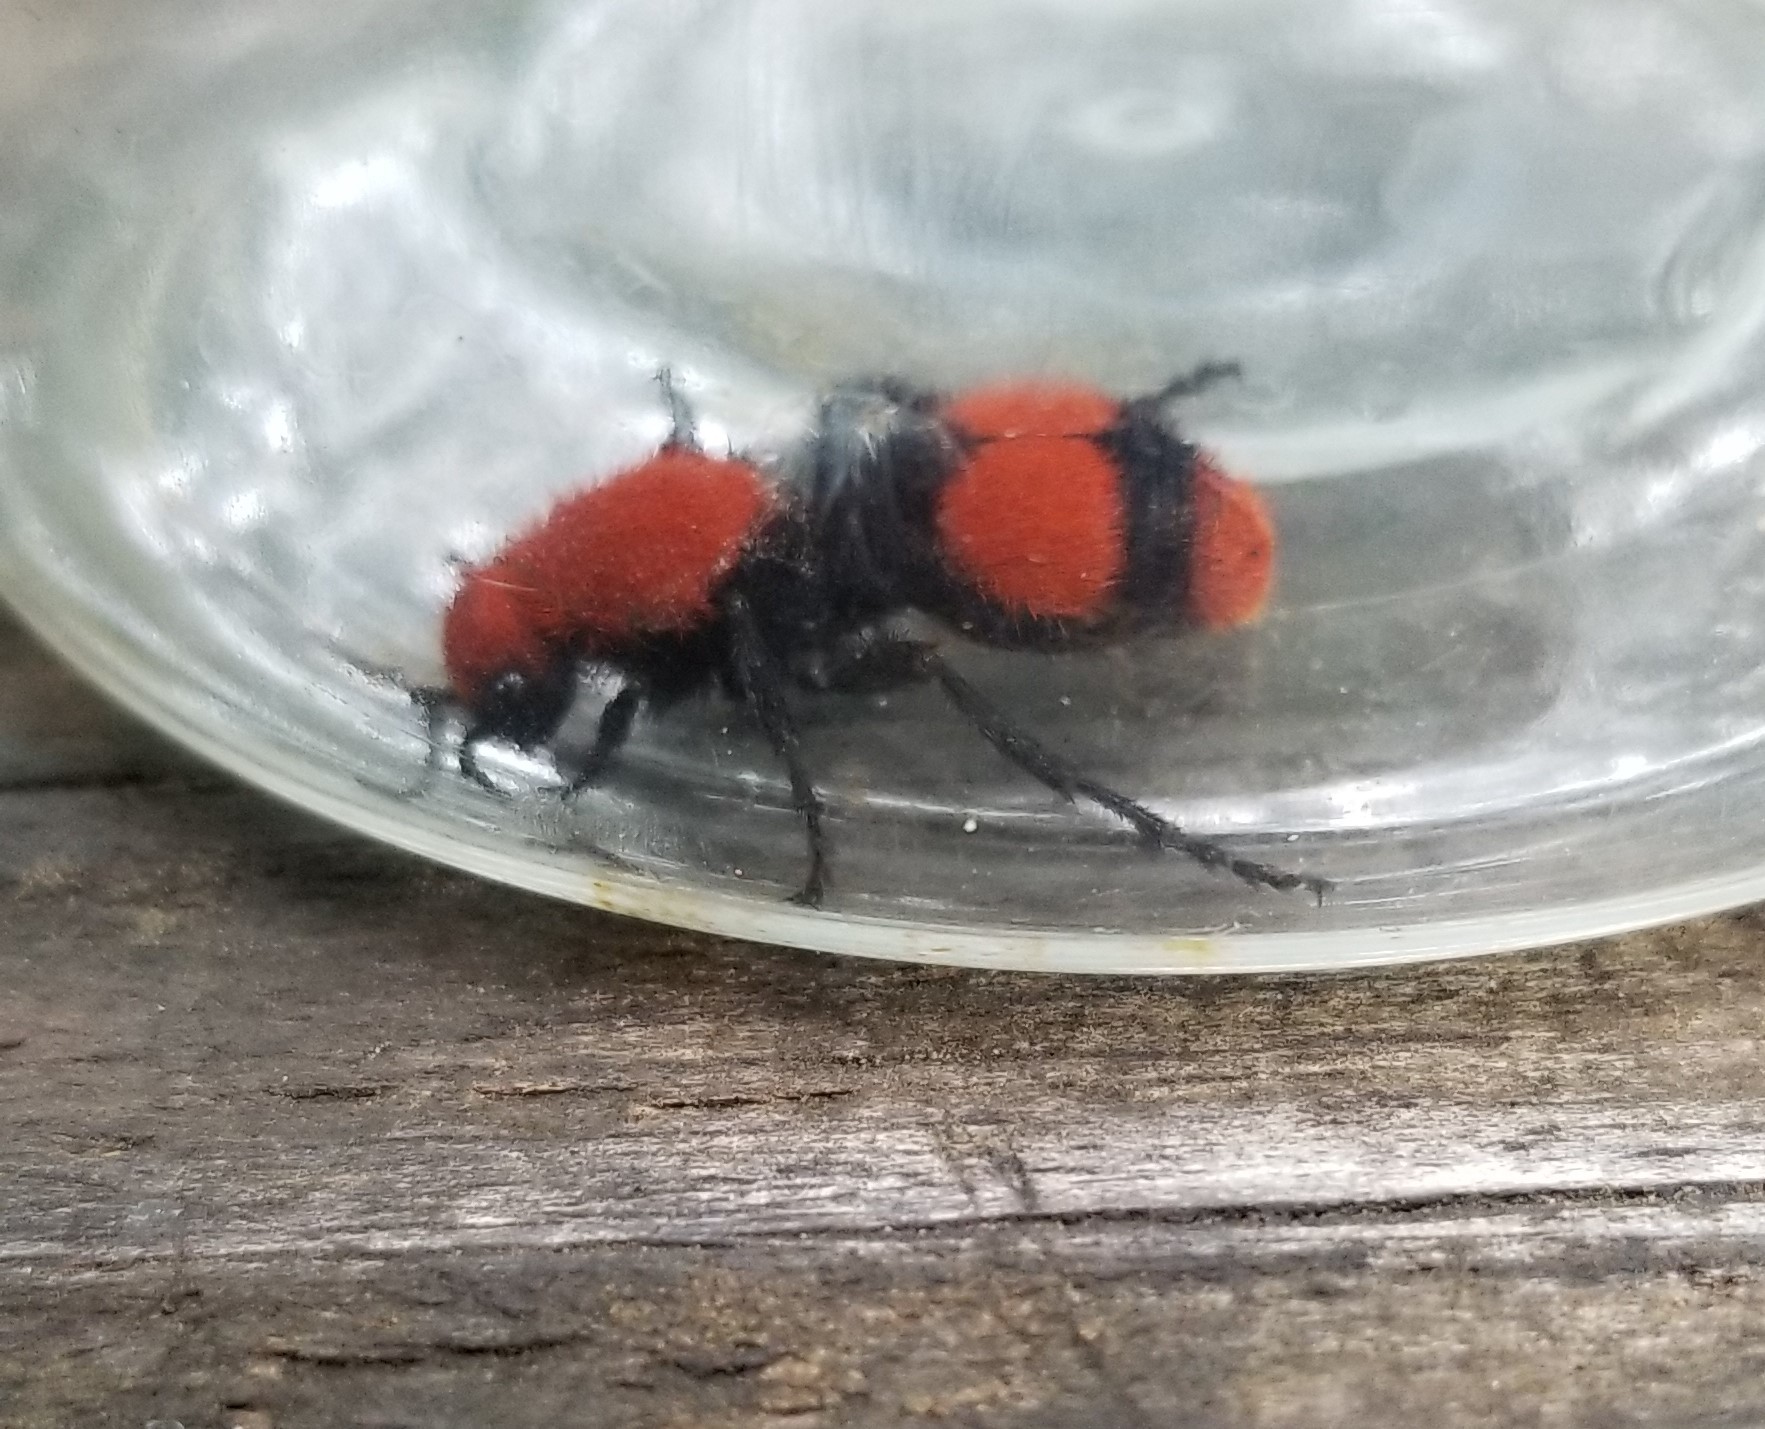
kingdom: Animalia
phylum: Arthropoda
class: Insecta
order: Hymenoptera
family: Mutillidae
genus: Dasymutilla
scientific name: Dasymutilla occidentalis
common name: Common eastern velvet ant
